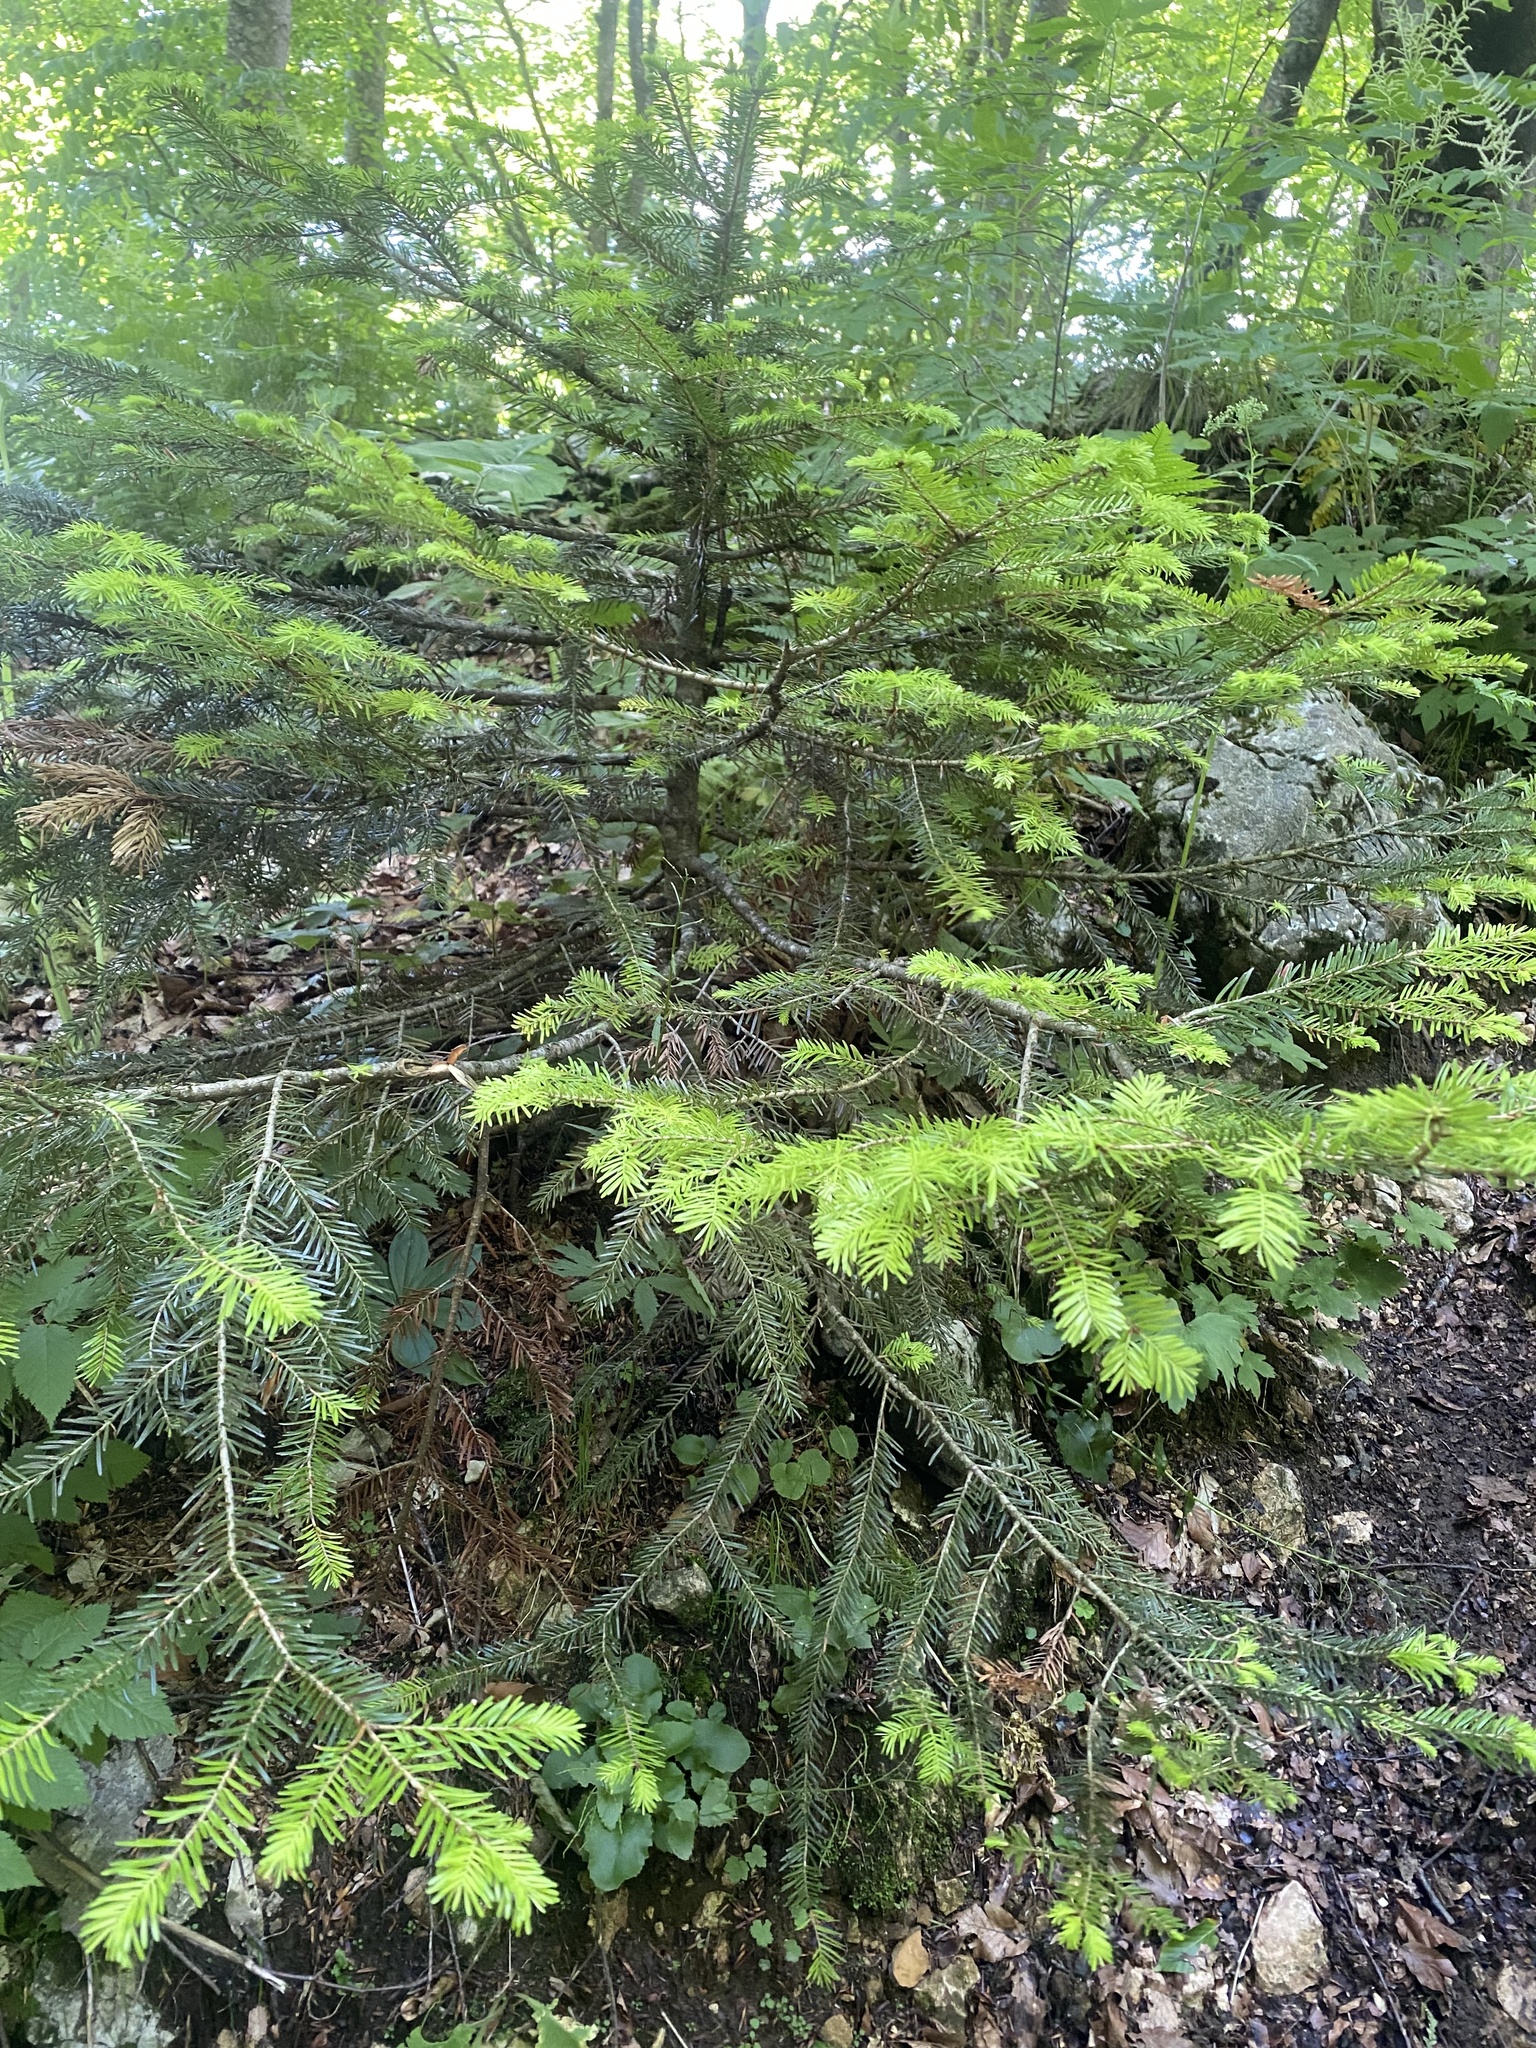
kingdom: Plantae
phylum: Tracheophyta
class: Pinopsida
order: Pinales
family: Pinaceae
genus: Abies
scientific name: Abies nordmanniana
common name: Caucasian fir
